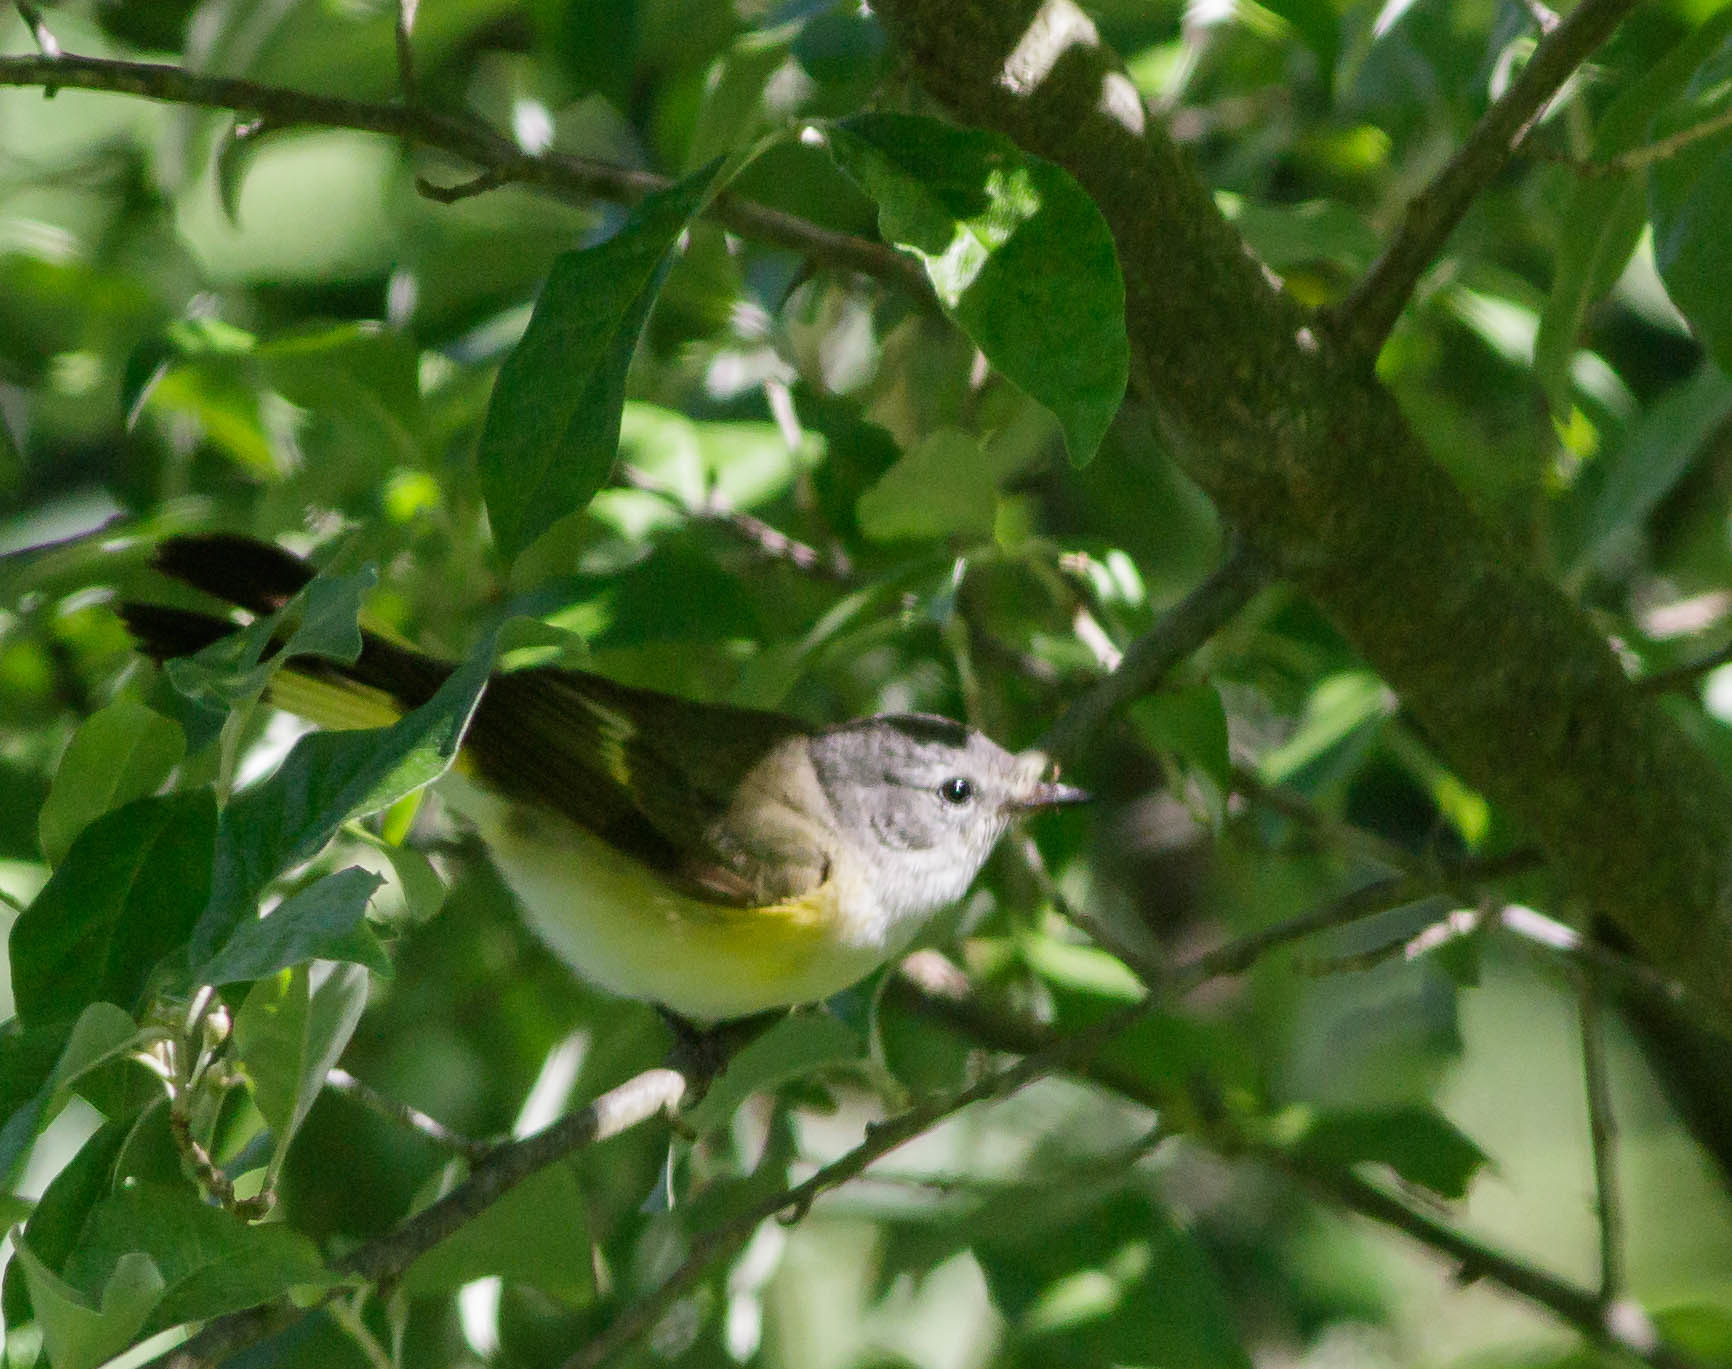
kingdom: Animalia
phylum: Chordata
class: Aves
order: Passeriformes
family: Parulidae
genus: Setophaga
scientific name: Setophaga ruticilla
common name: American redstart
